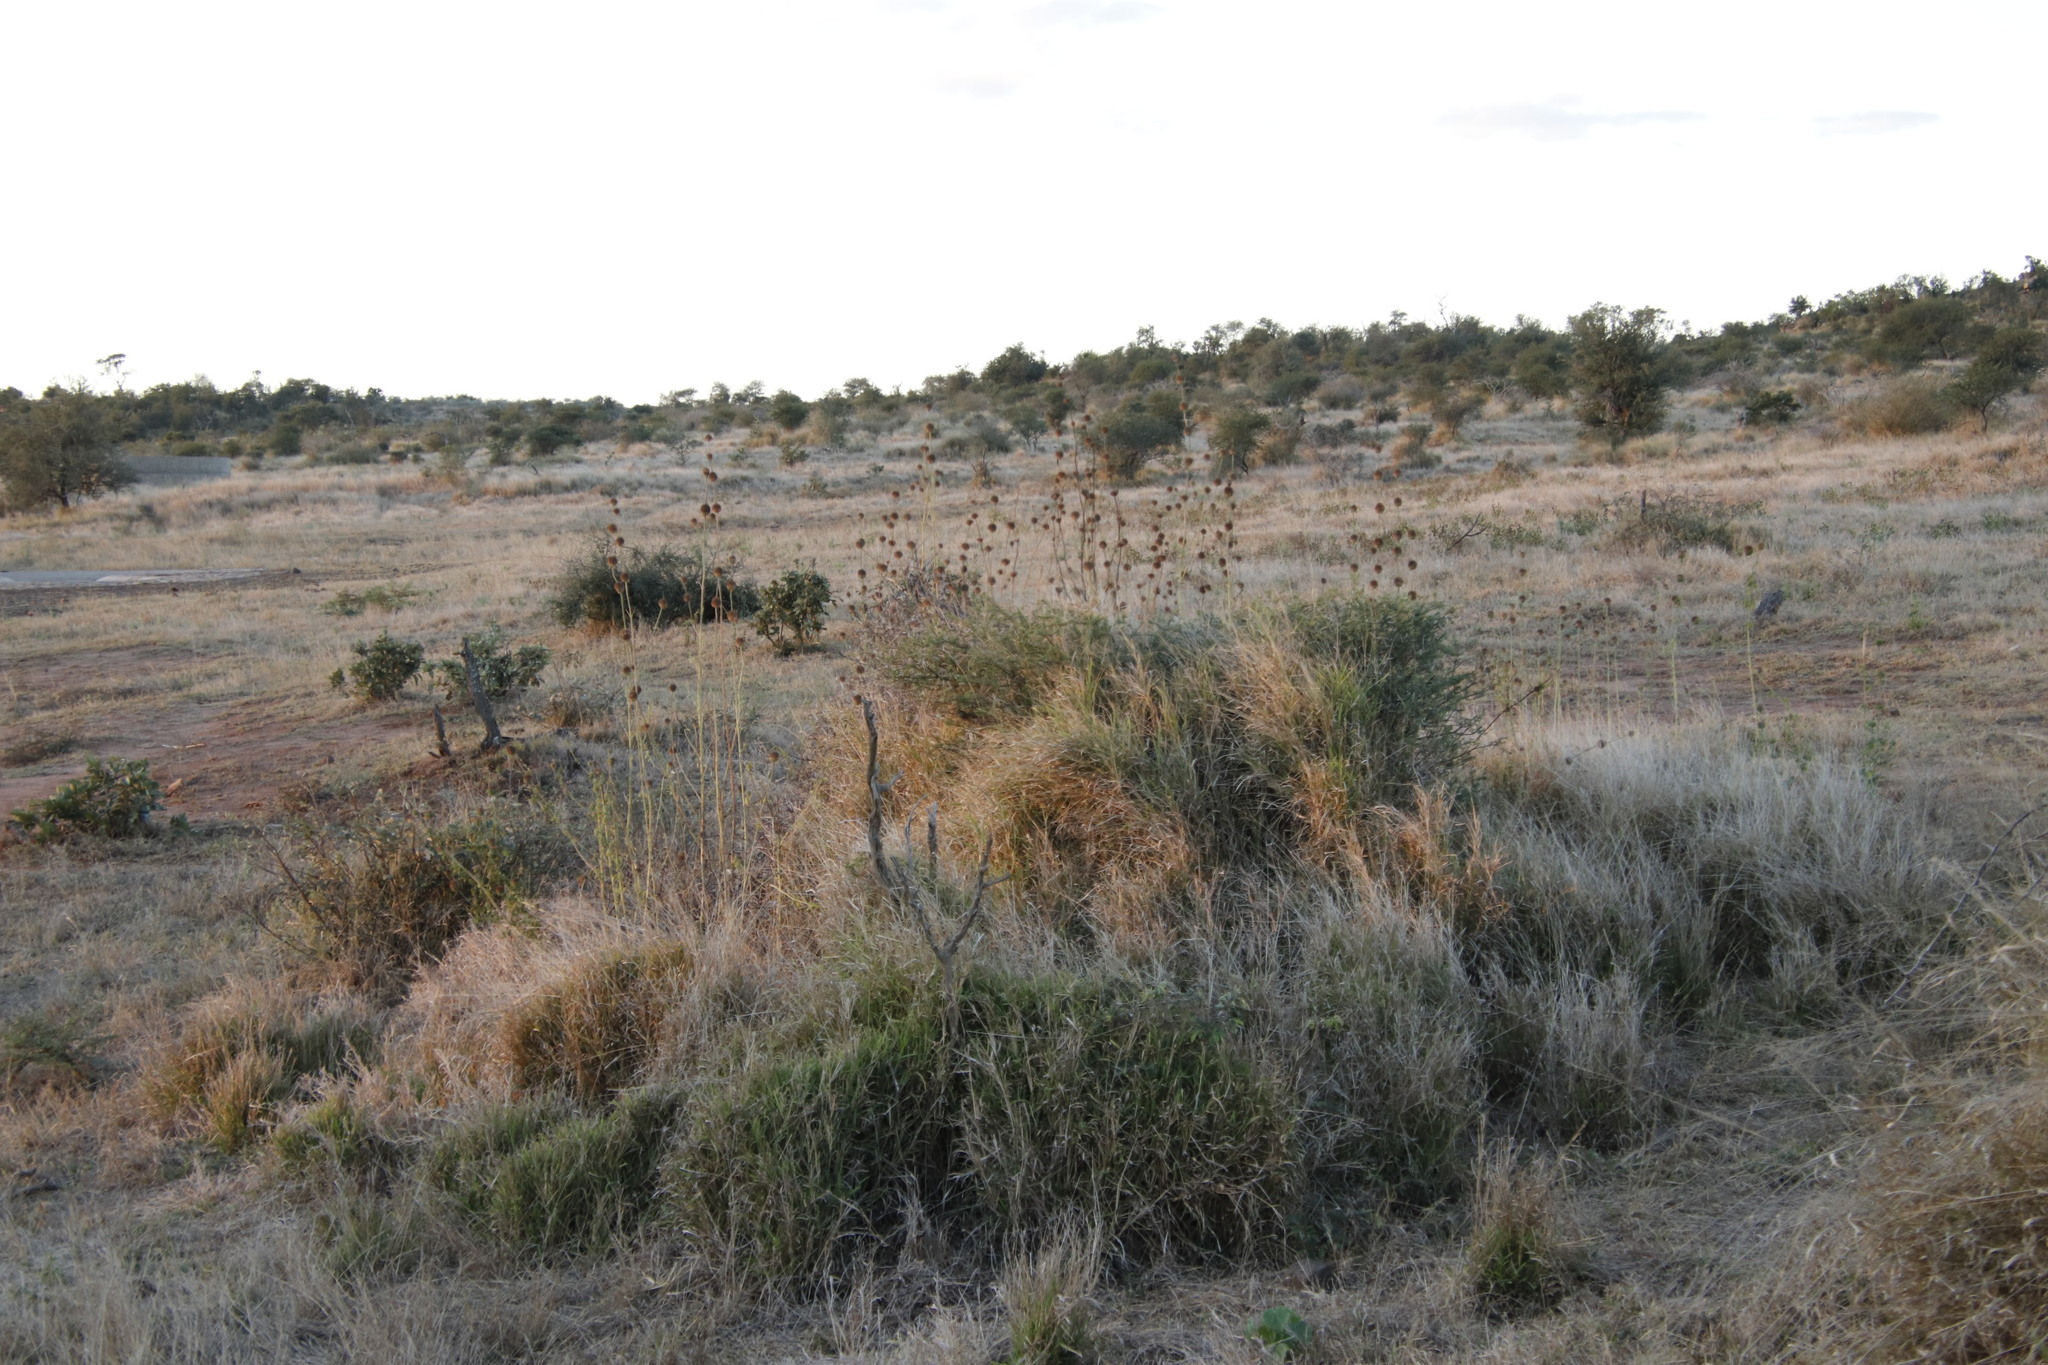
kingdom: Plantae
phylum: Tracheophyta
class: Magnoliopsida
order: Lamiales
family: Lamiaceae
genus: Leonotis
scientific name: Leonotis nepetifolia
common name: Christmas candlestick
